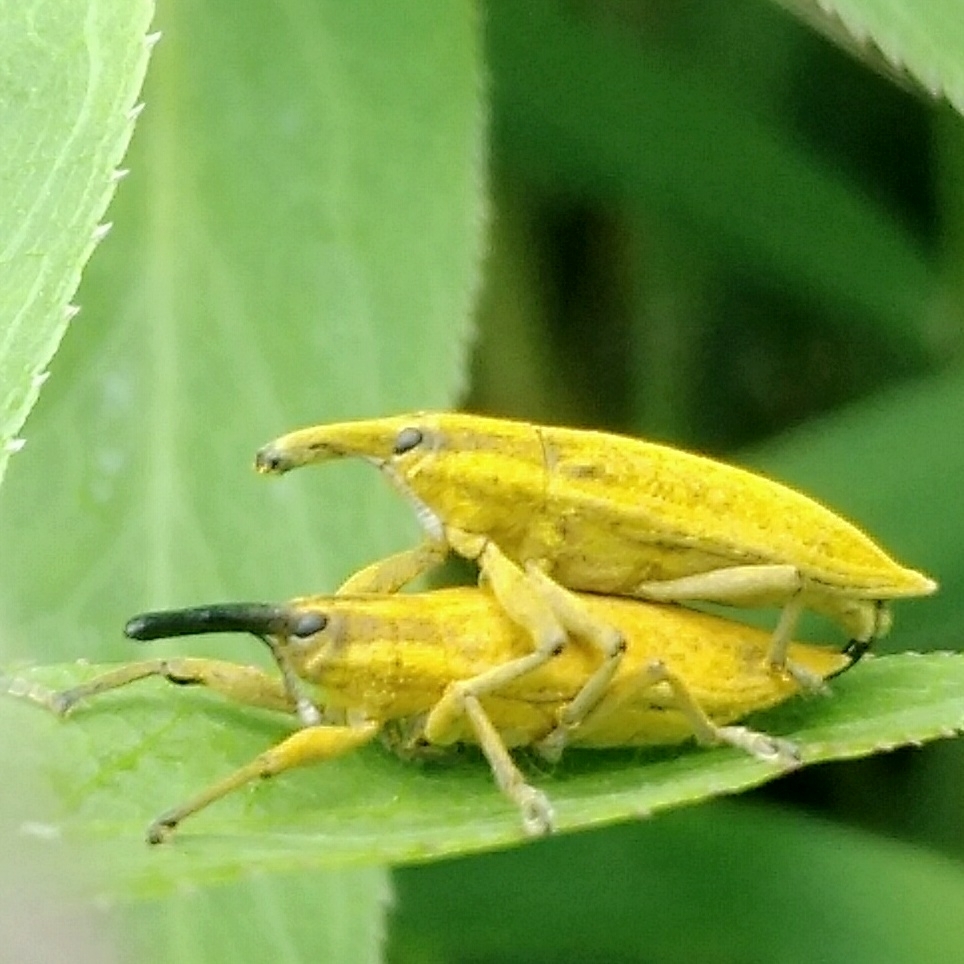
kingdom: Animalia
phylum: Arthropoda
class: Insecta
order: Coleoptera
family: Curculionidae
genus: Lixus
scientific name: Lixus iridis
